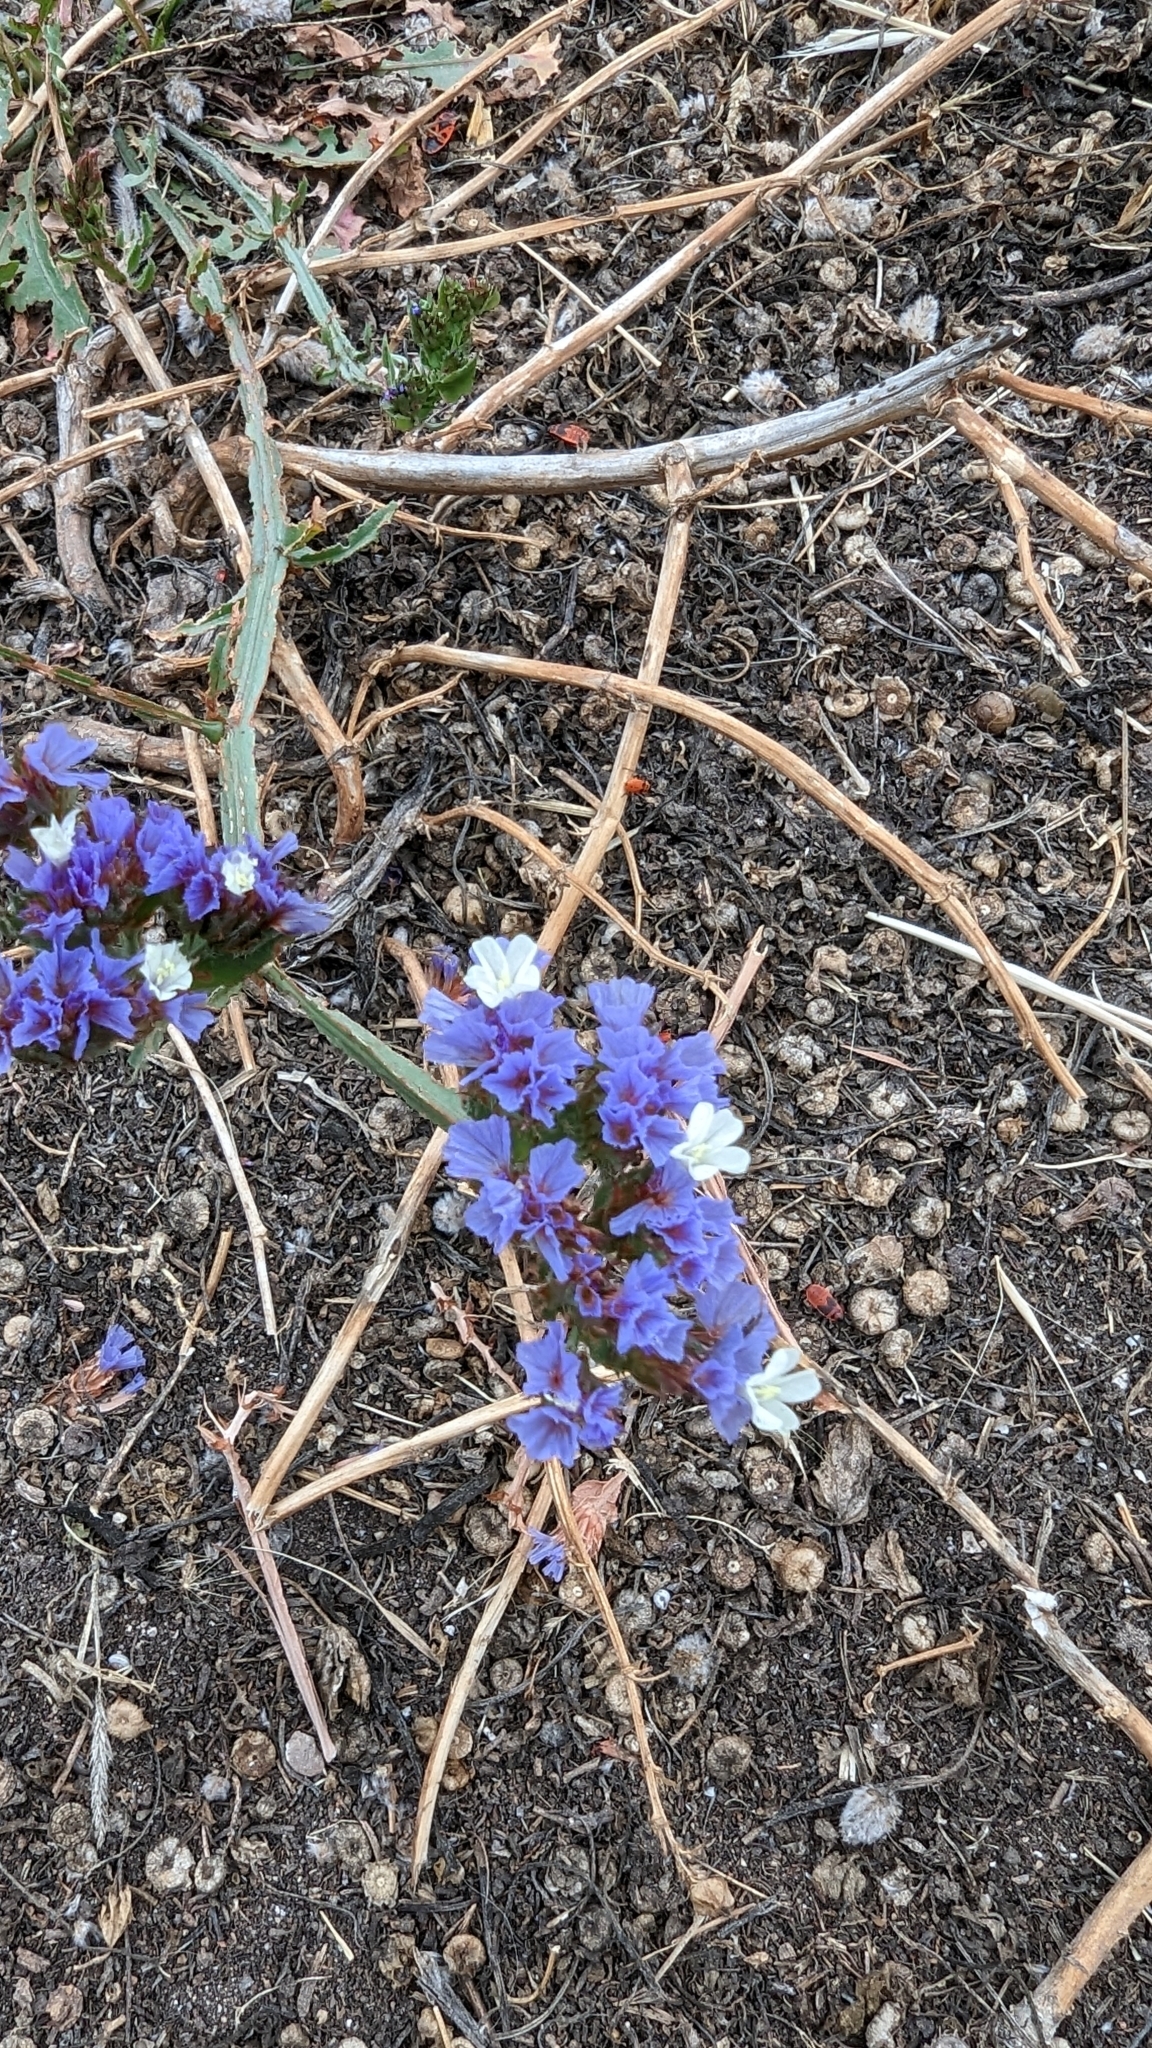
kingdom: Plantae
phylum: Tracheophyta
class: Magnoliopsida
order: Caryophyllales
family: Plumbaginaceae
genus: Limonium
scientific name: Limonium sinuatum
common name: Statice
